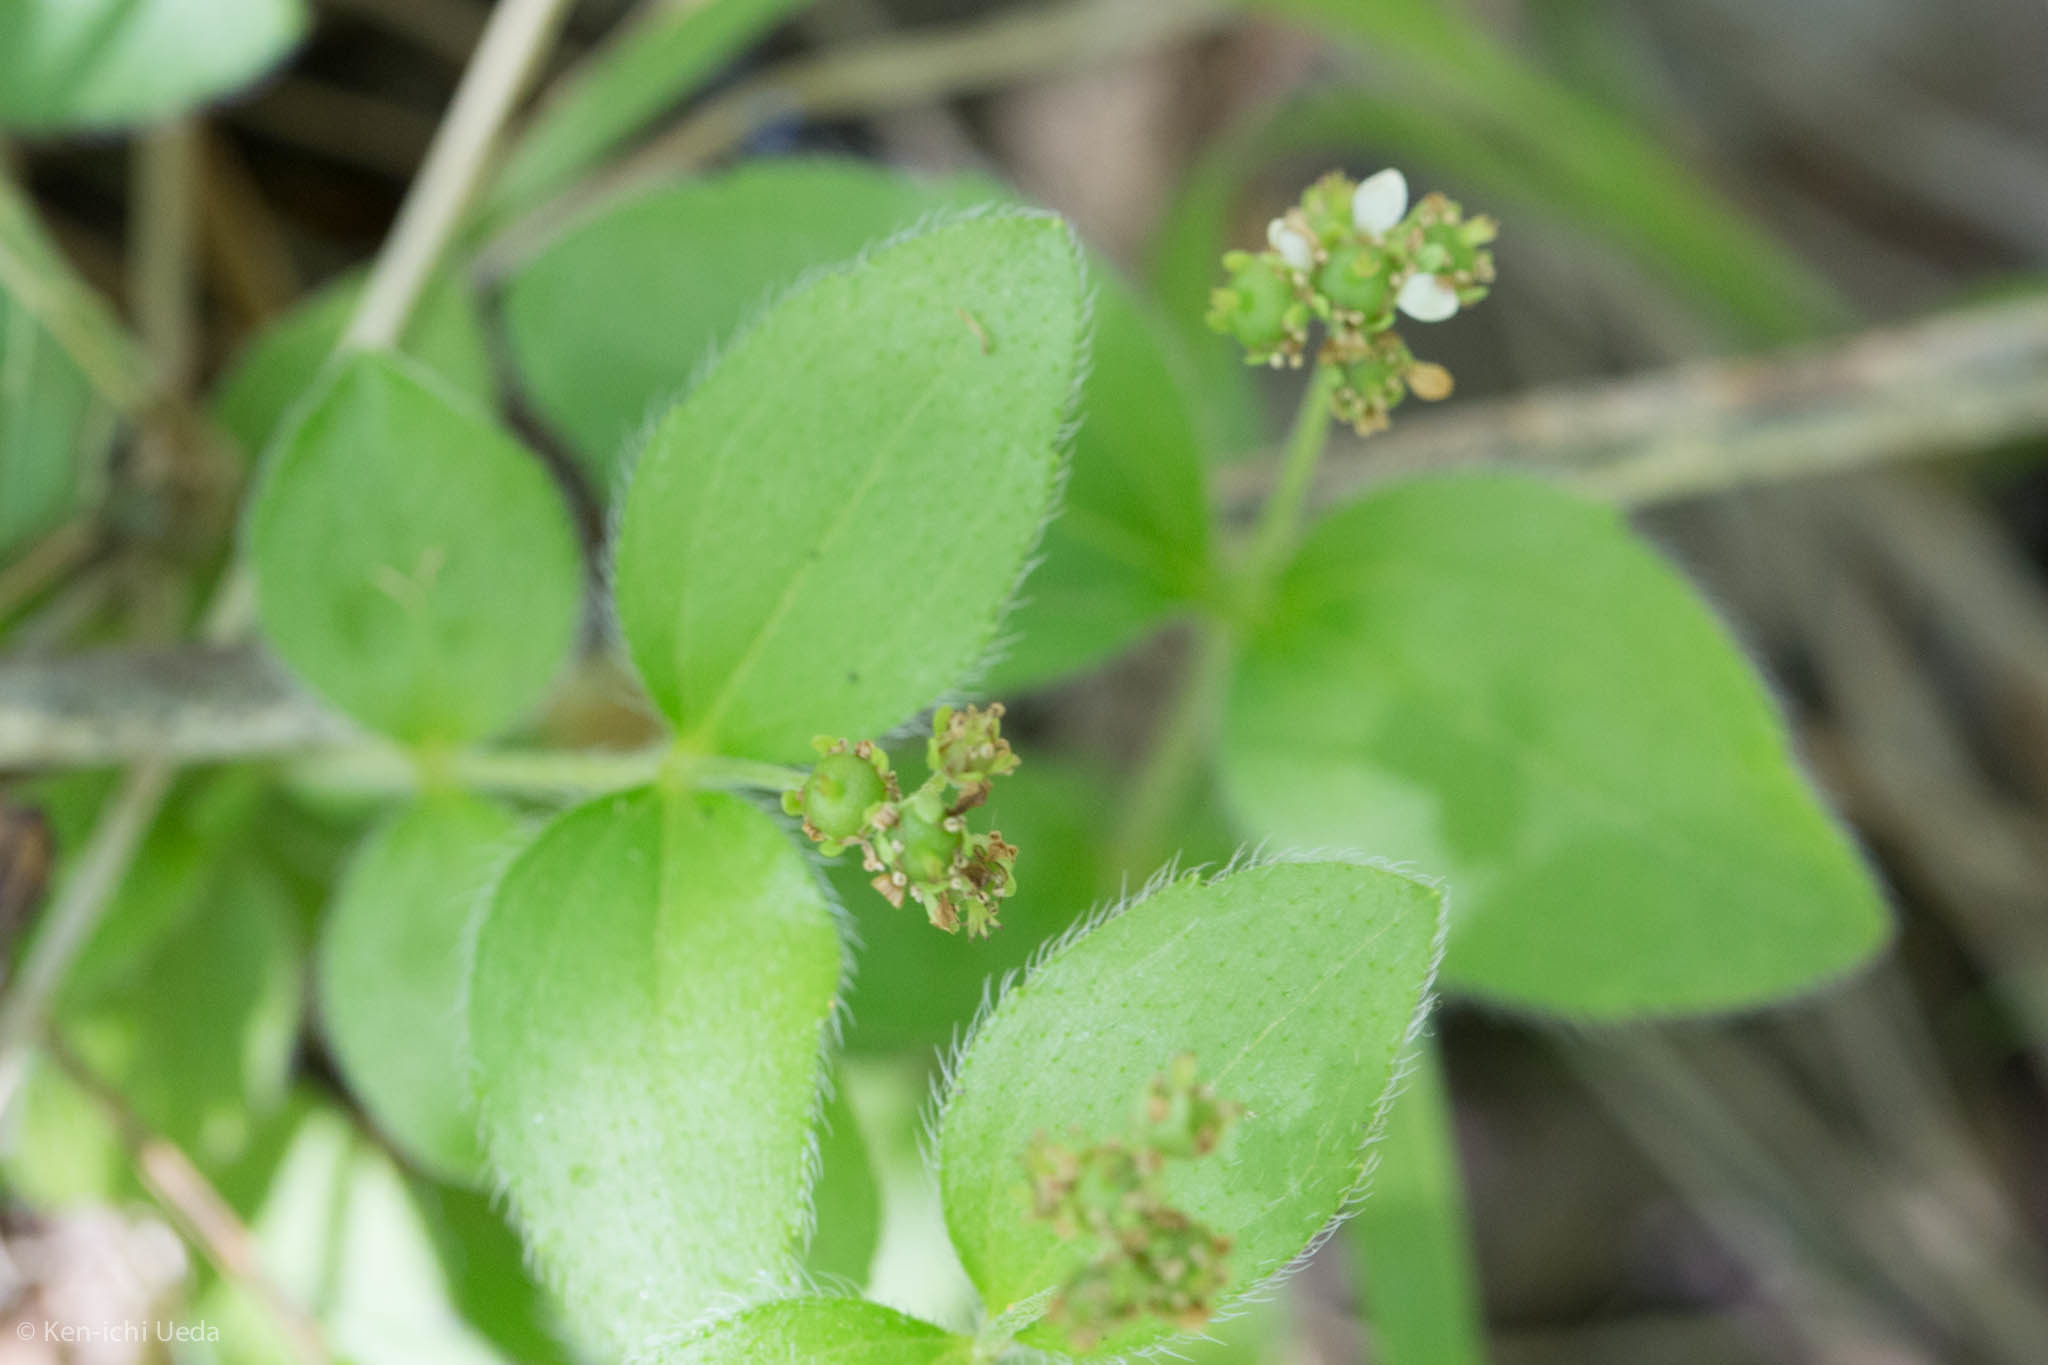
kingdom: Plantae
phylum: Tracheophyta
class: Magnoliopsida
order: Cornales
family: Hydrangeaceae
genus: Whipplea
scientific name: Whipplea modesta
